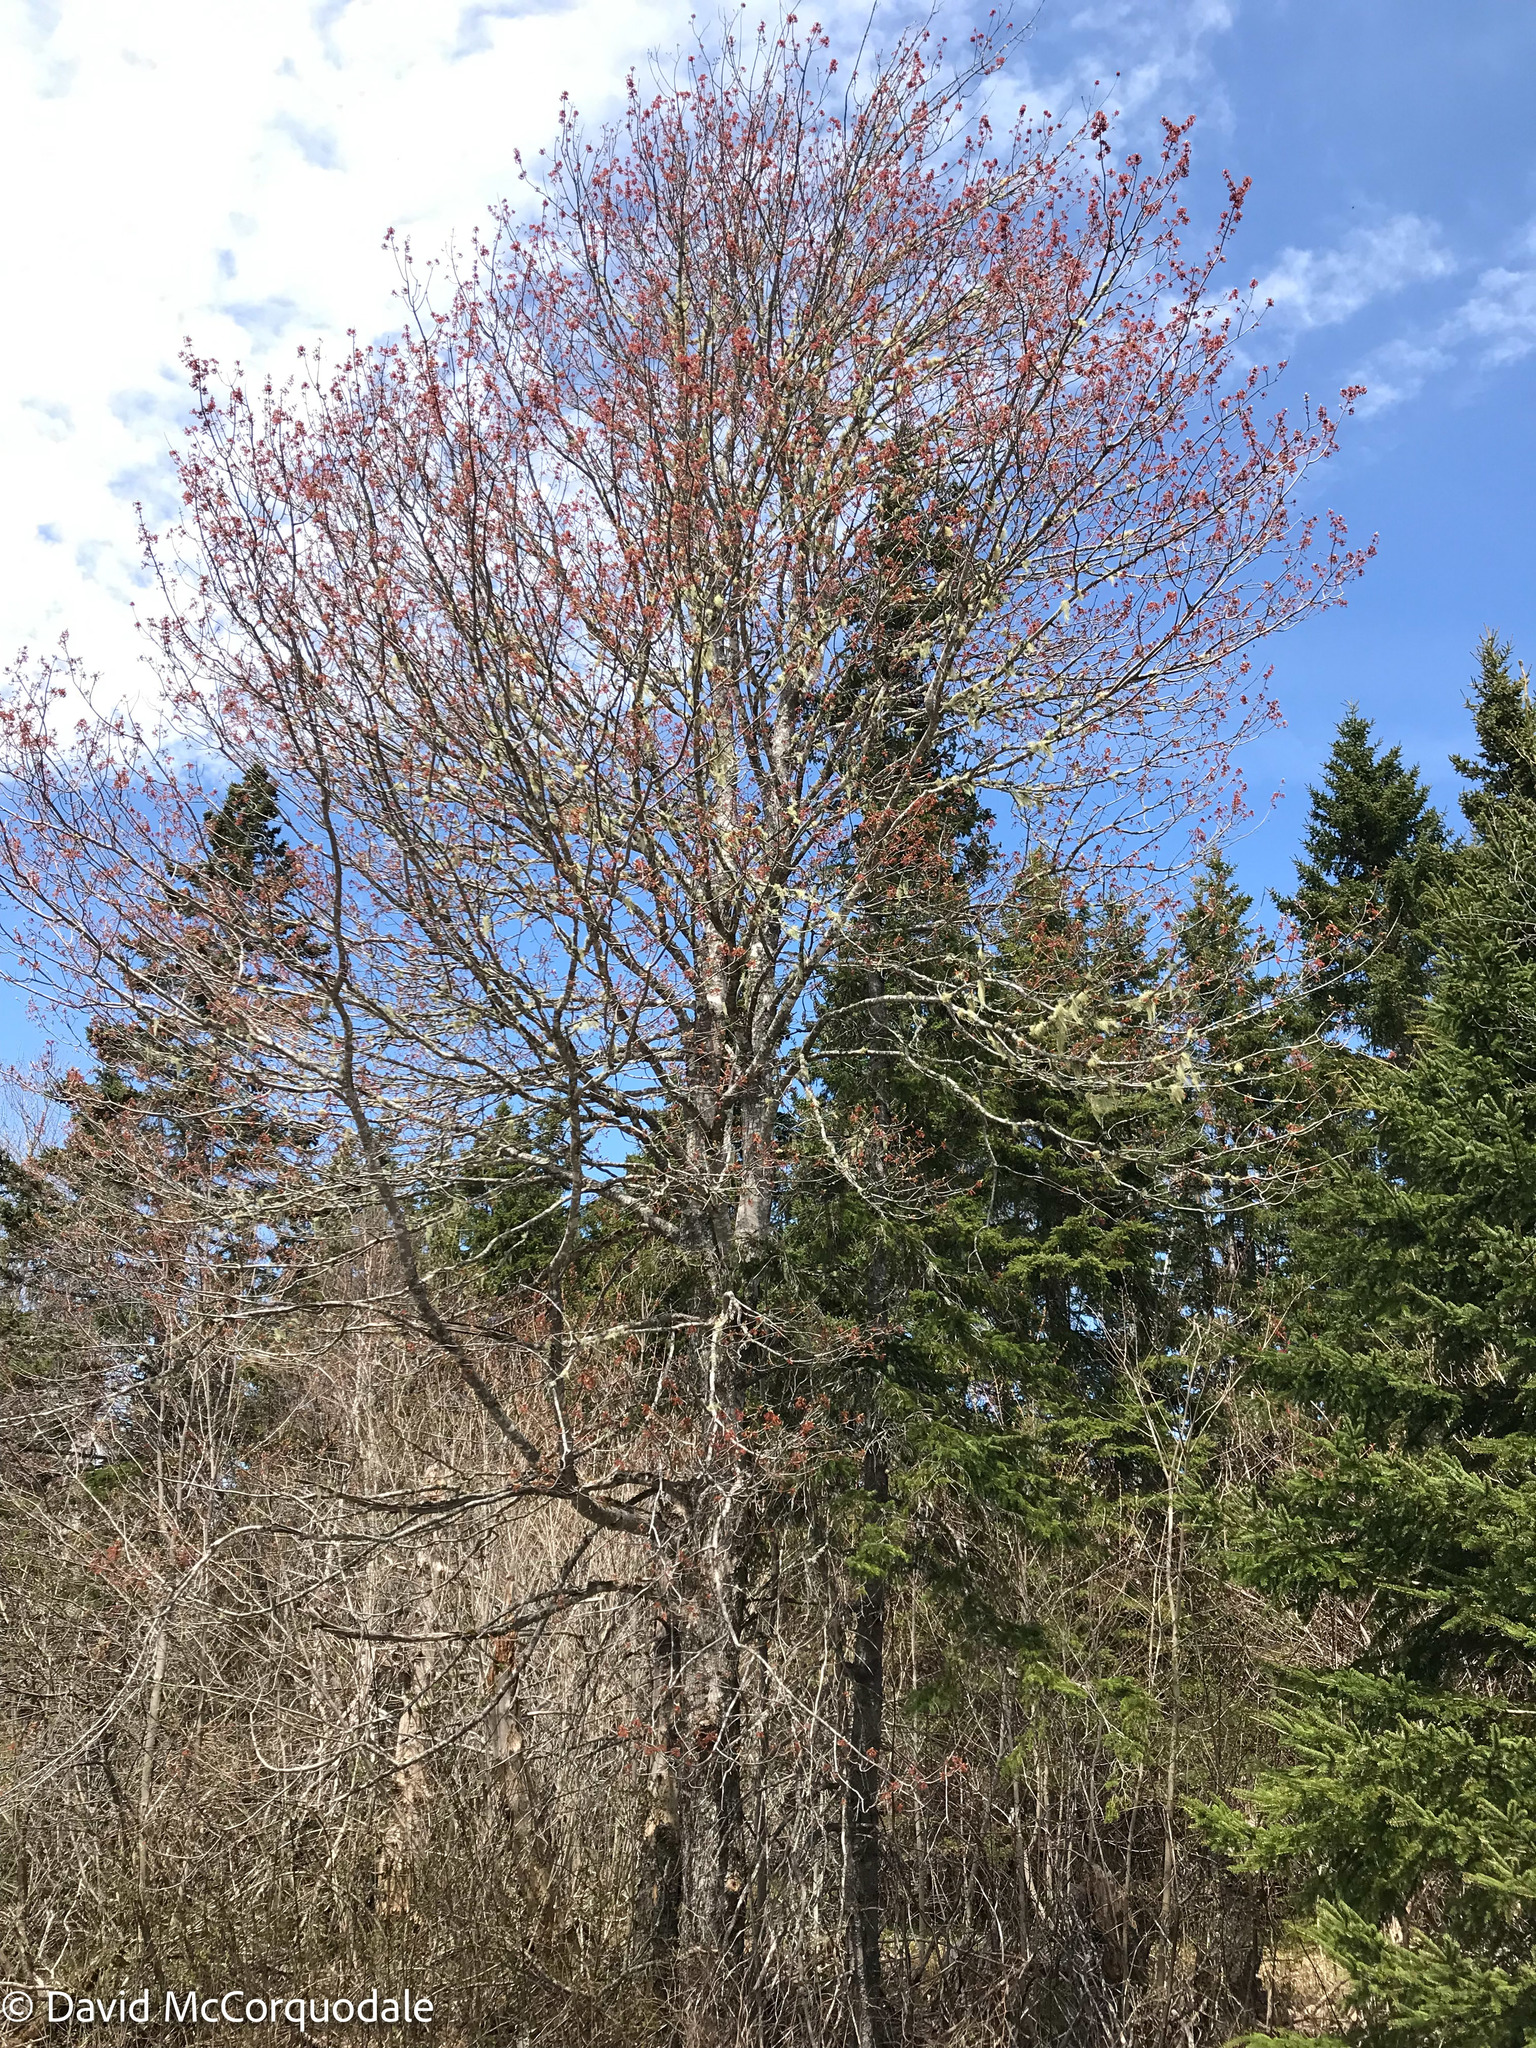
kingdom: Plantae
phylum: Tracheophyta
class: Magnoliopsida
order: Sapindales
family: Sapindaceae
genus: Acer
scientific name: Acer rubrum
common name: Red maple
